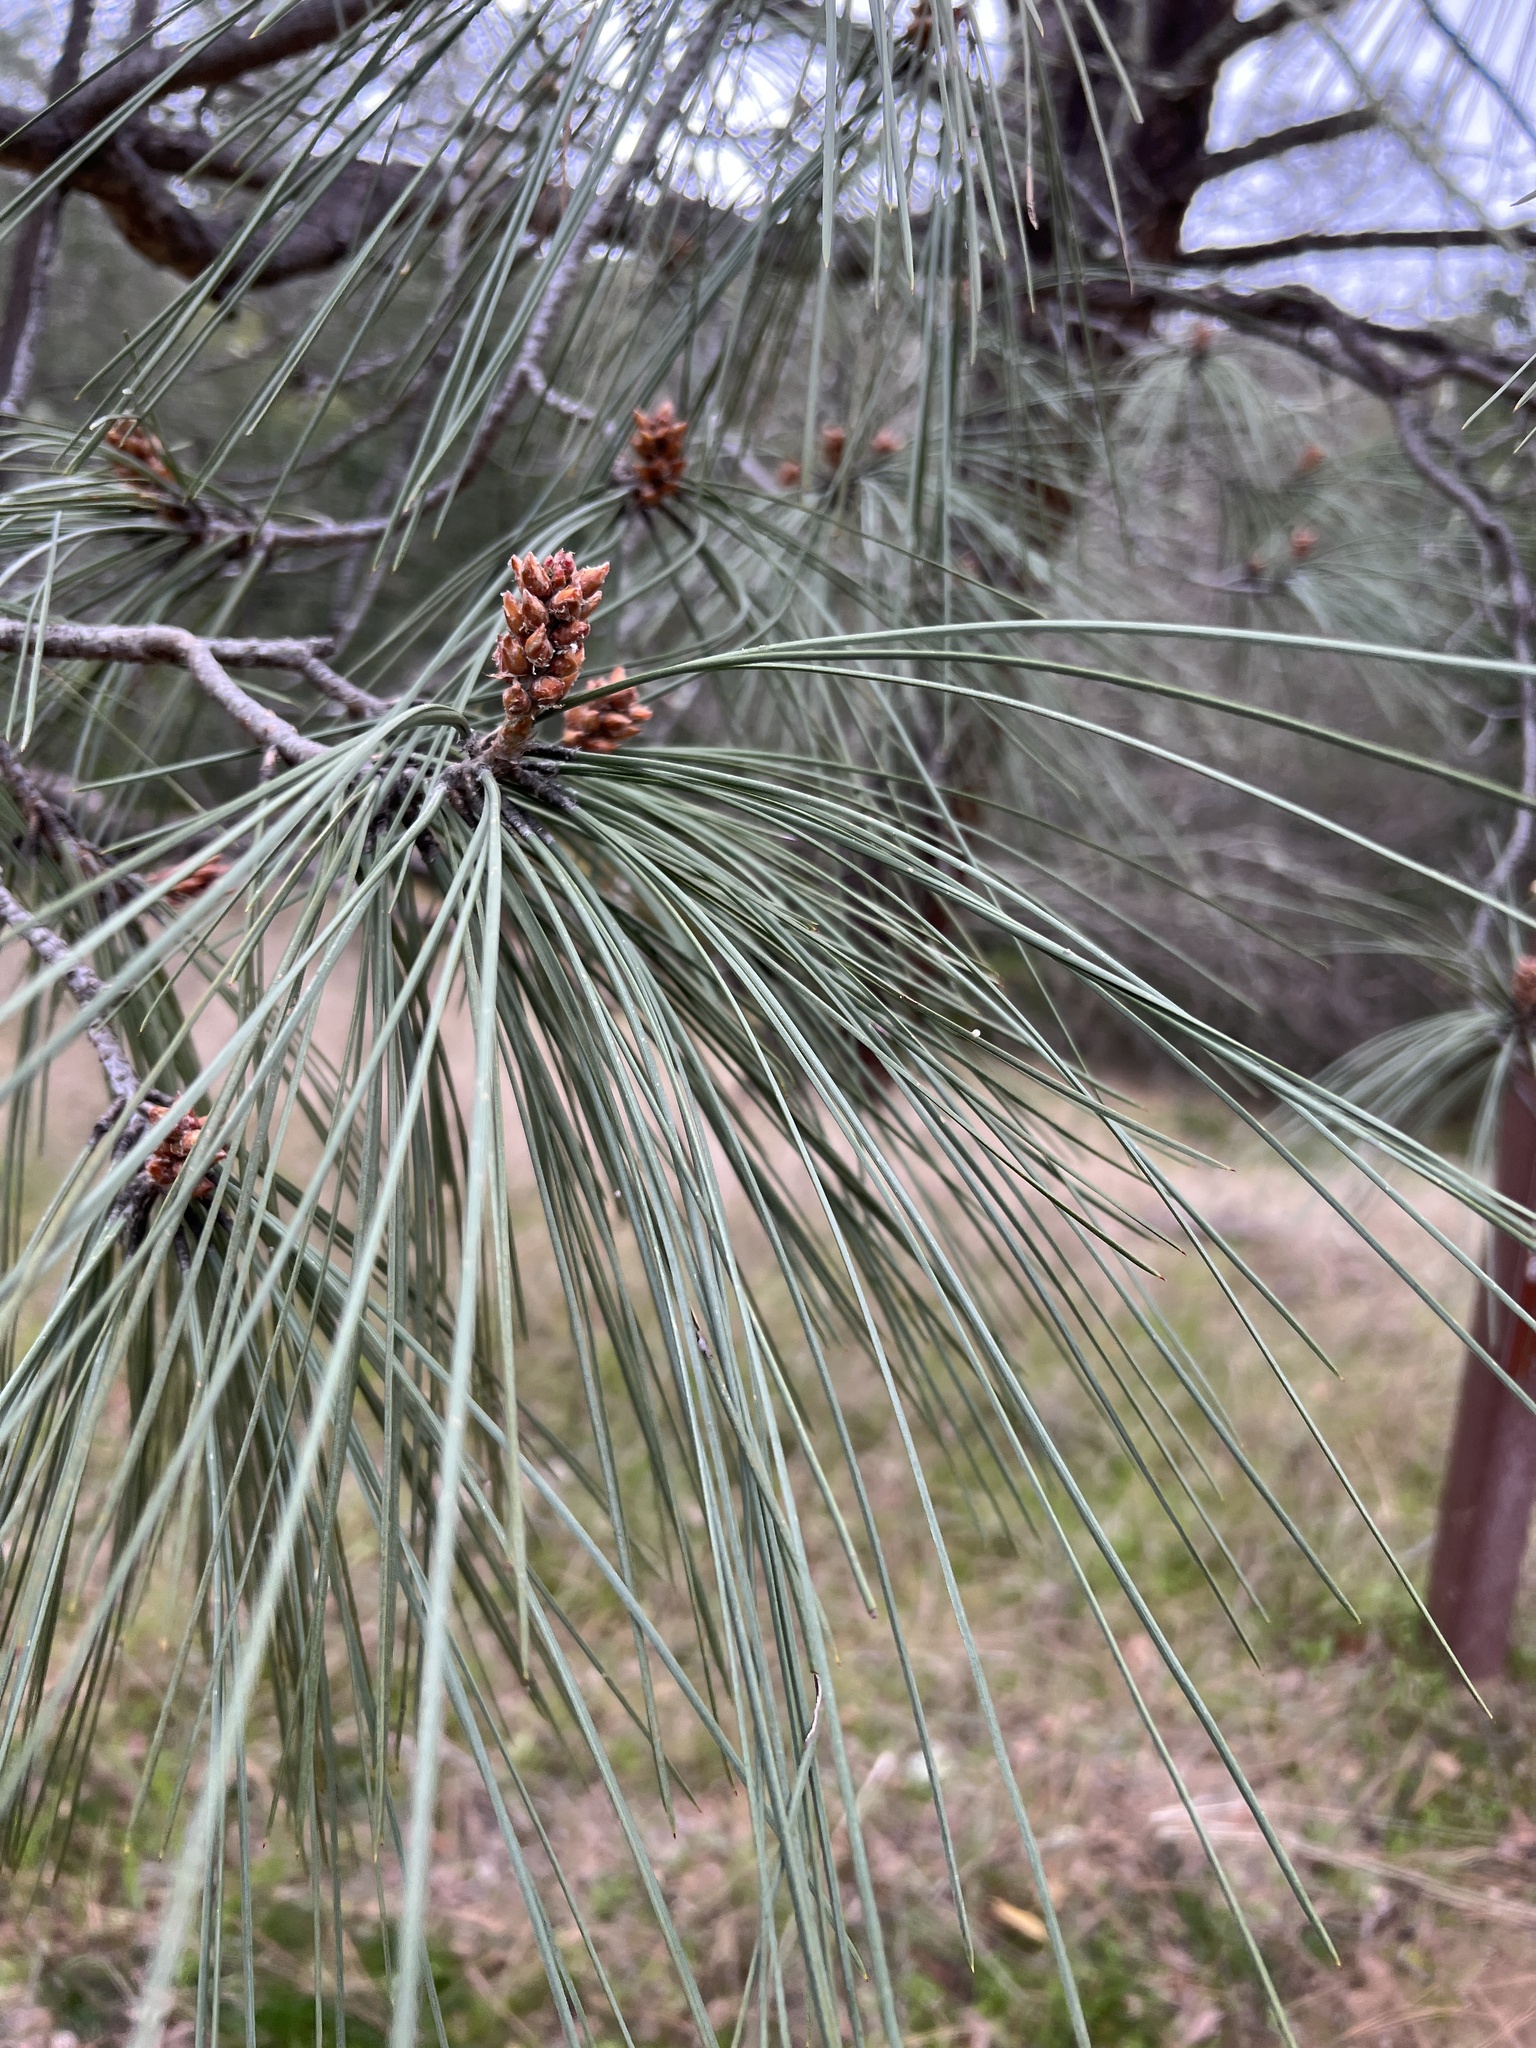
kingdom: Plantae
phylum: Tracheophyta
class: Pinopsida
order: Pinales
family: Pinaceae
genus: Pinus
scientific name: Pinus sabiniana
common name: Bull pine
